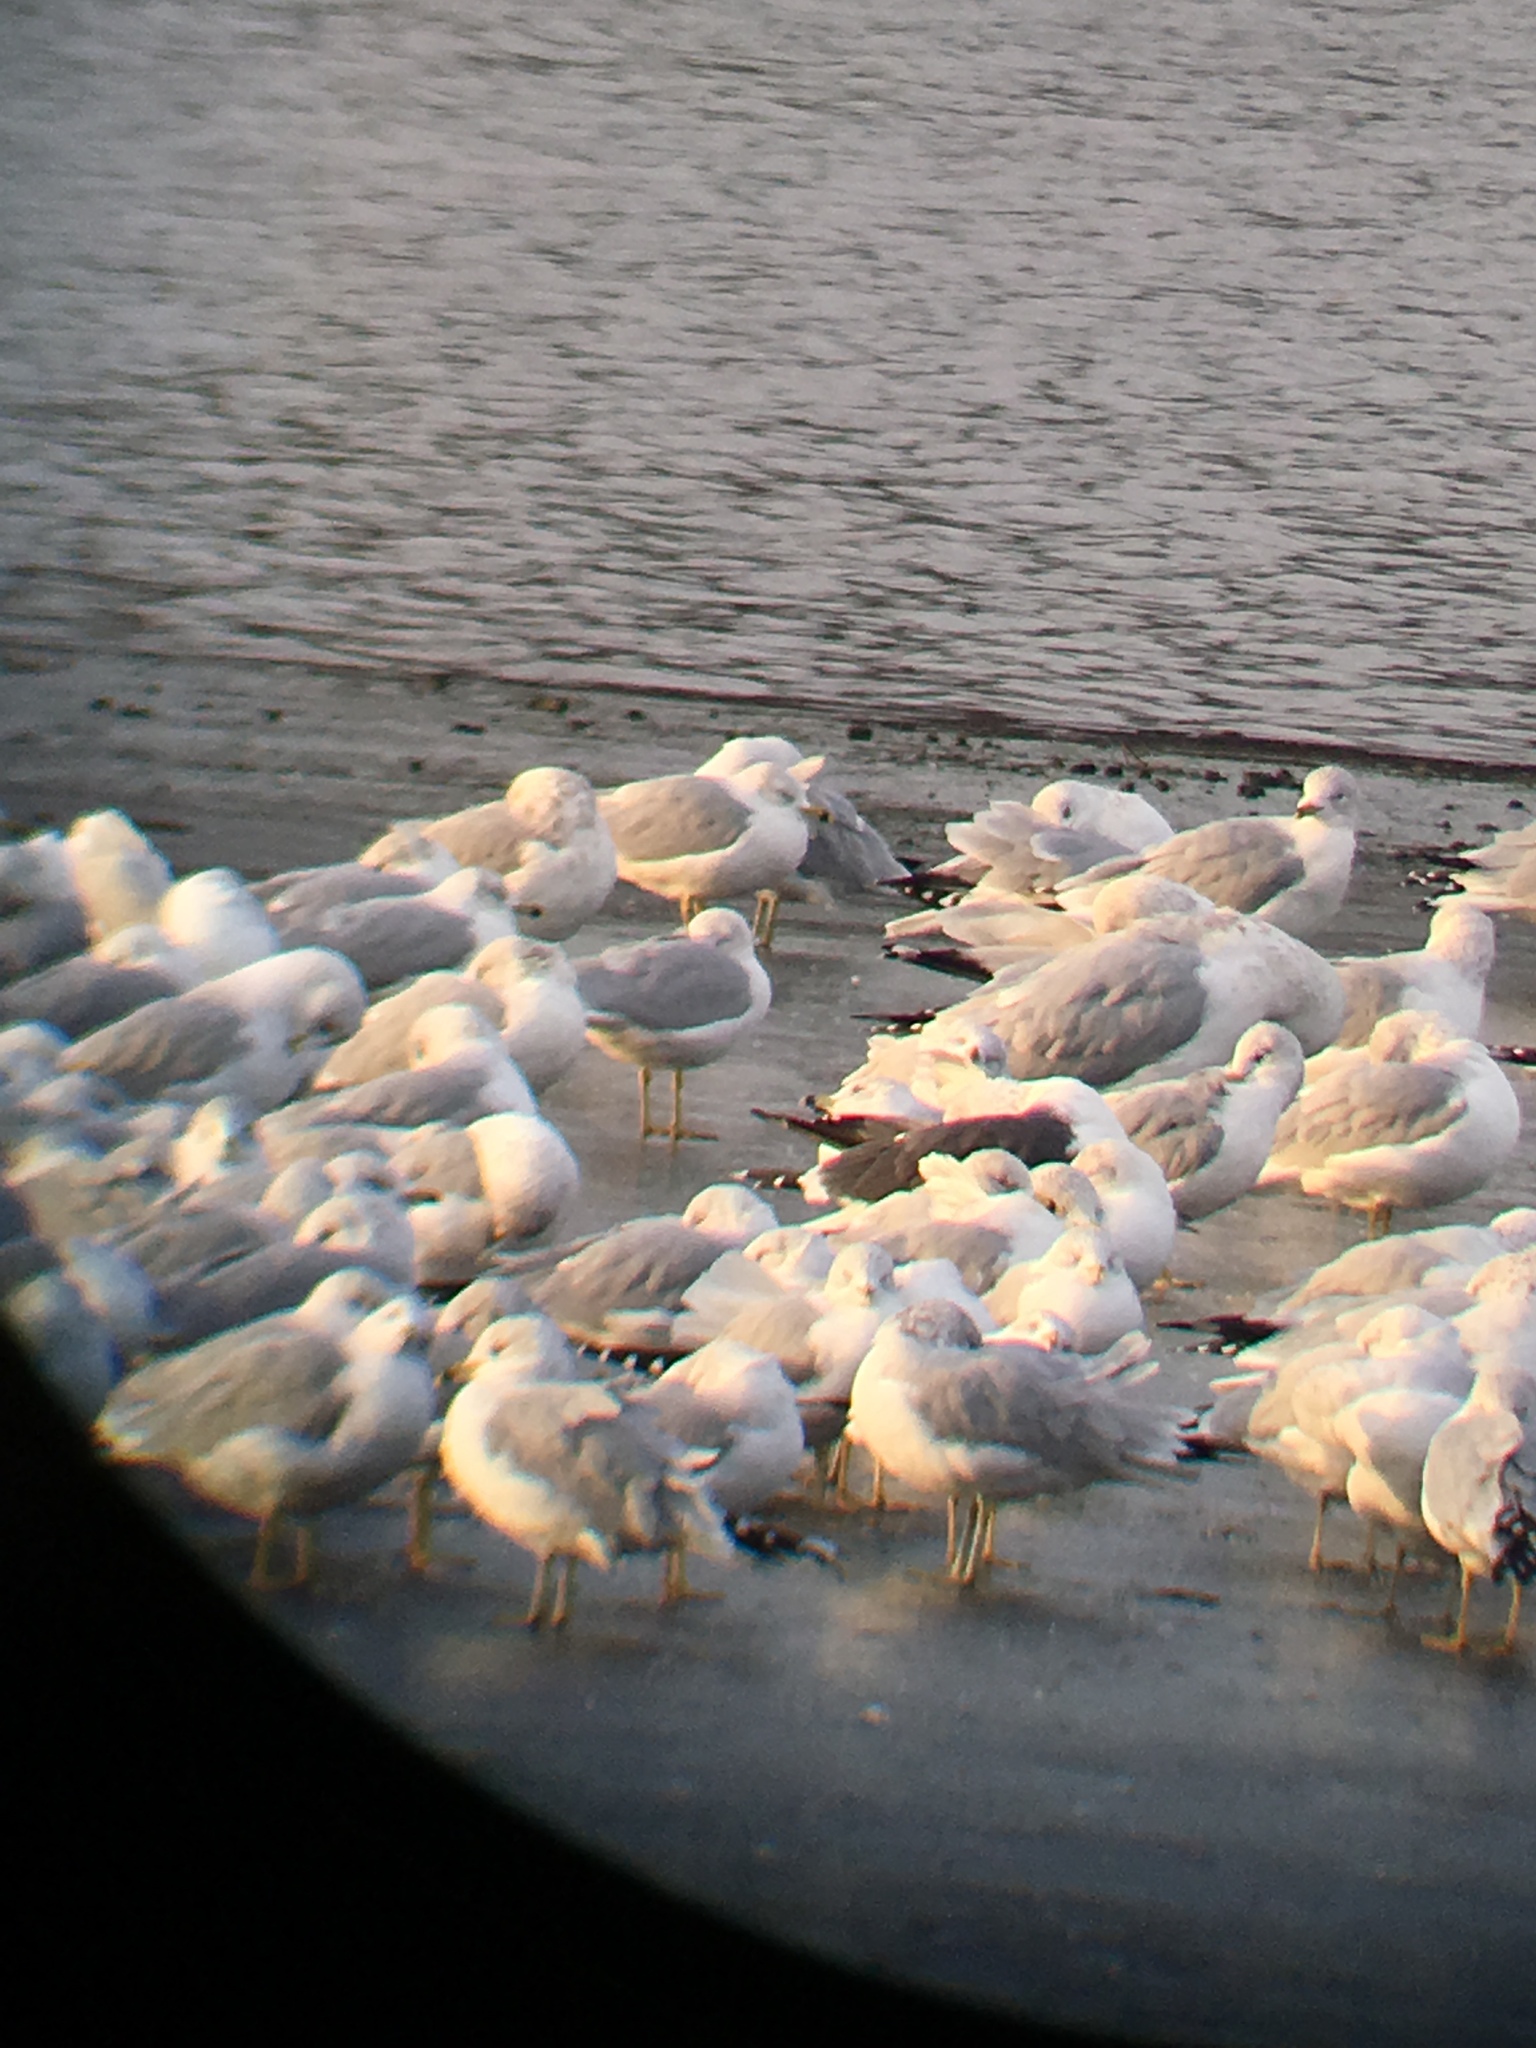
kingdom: Animalia
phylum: Chordata
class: Aves
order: Charadriiformes
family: Laridae
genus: Larus
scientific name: Larus fuscus
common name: Lesser black-backed gull
